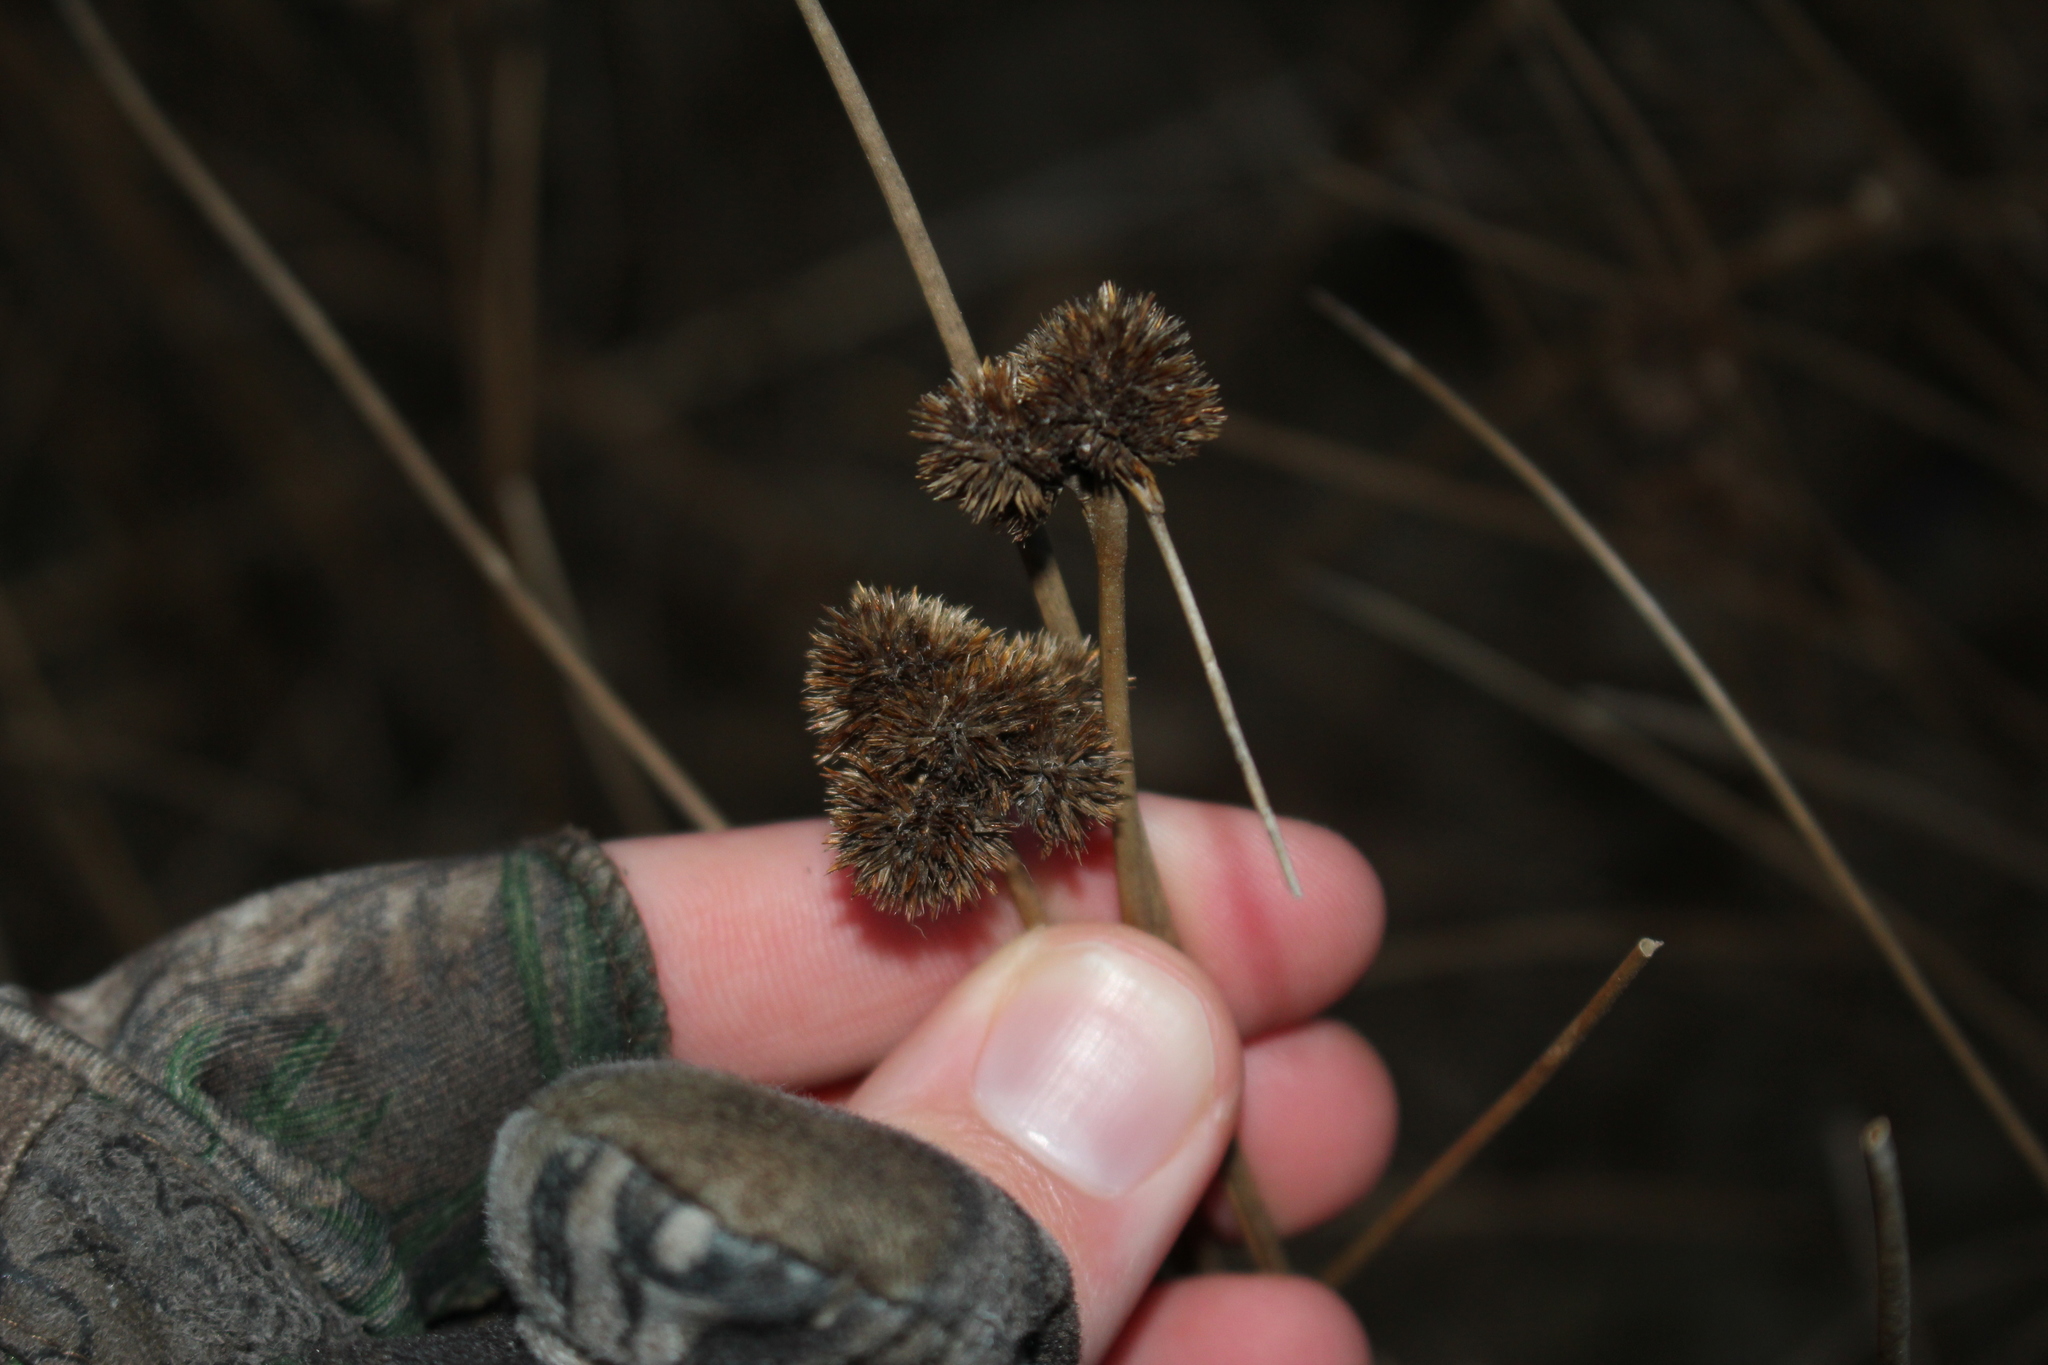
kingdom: Plantae
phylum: Tracheophyta
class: Liliopsida
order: Poales
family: Juncaceae
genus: Juncus
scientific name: Juncus torreyi
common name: Torrey's rush
